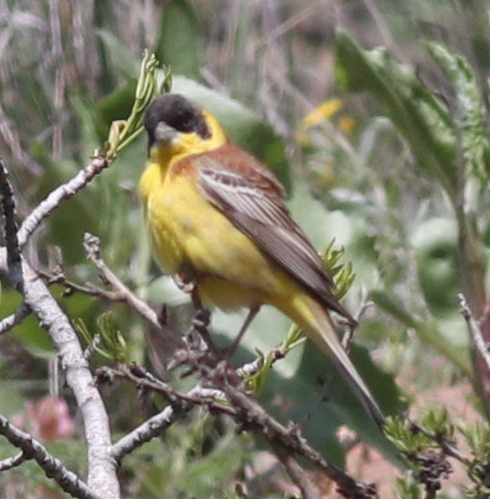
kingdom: Animalia
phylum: Chordata
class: Aves
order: Passeriformes
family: Emberizidae
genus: Emberiza
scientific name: Emberiza melanocephala
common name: Black-headed bunting
